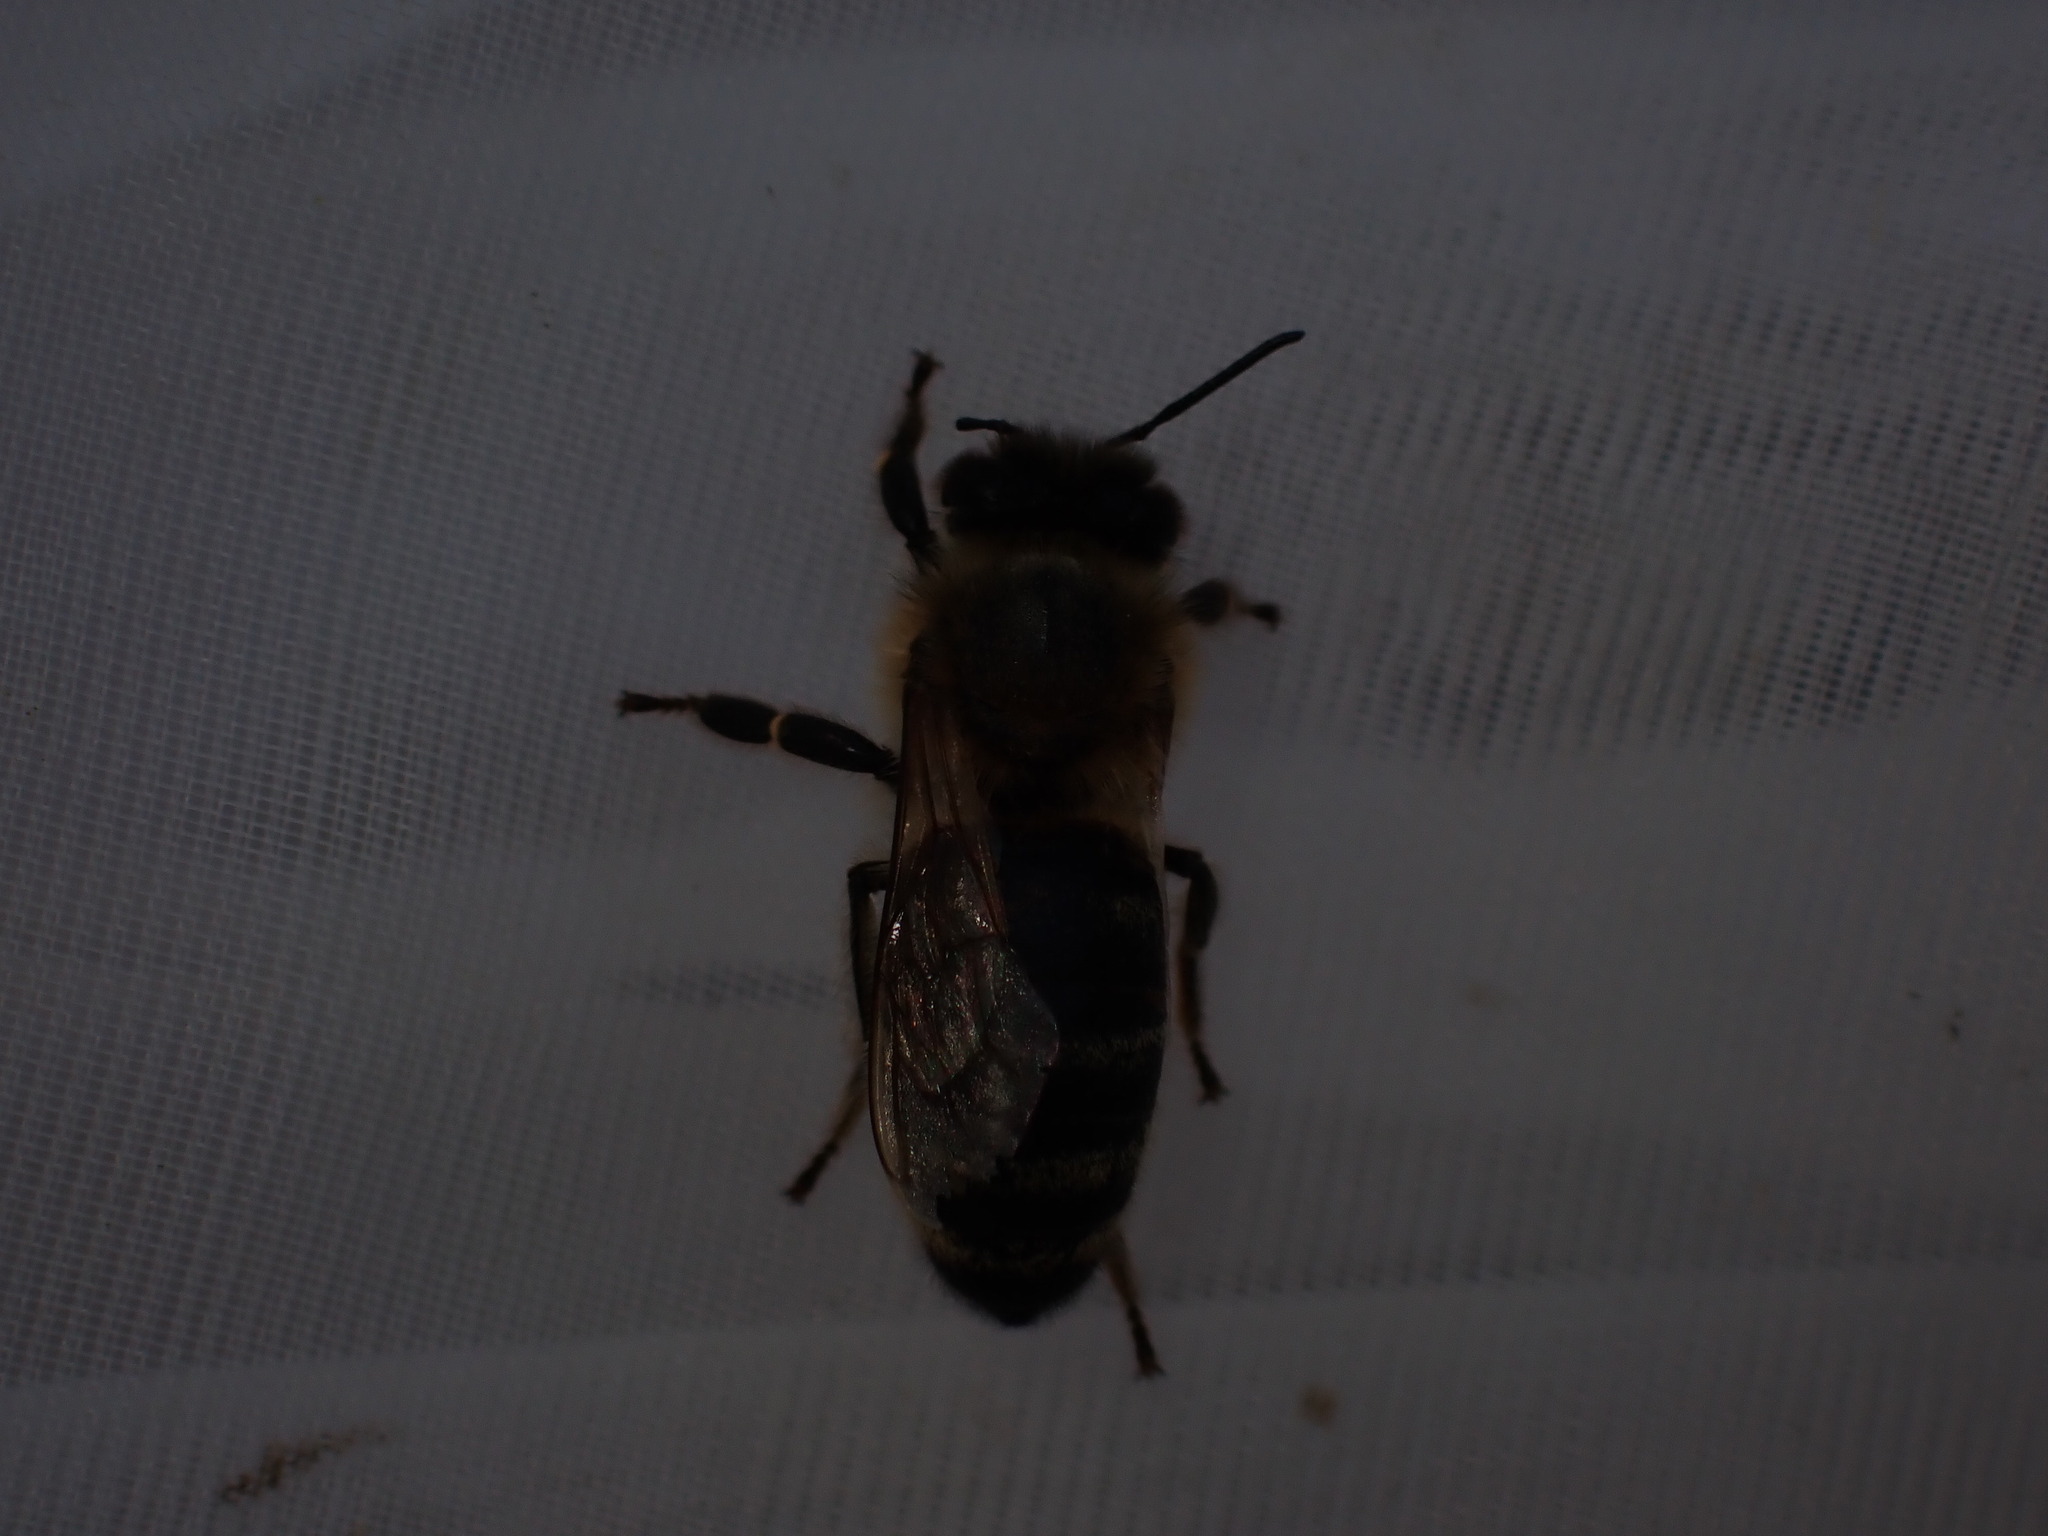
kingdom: Animalia
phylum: Arthropoda
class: Insecta
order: Hymenoptera
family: Apidae
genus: Apis
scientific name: Apis mellifera
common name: Honey bee
